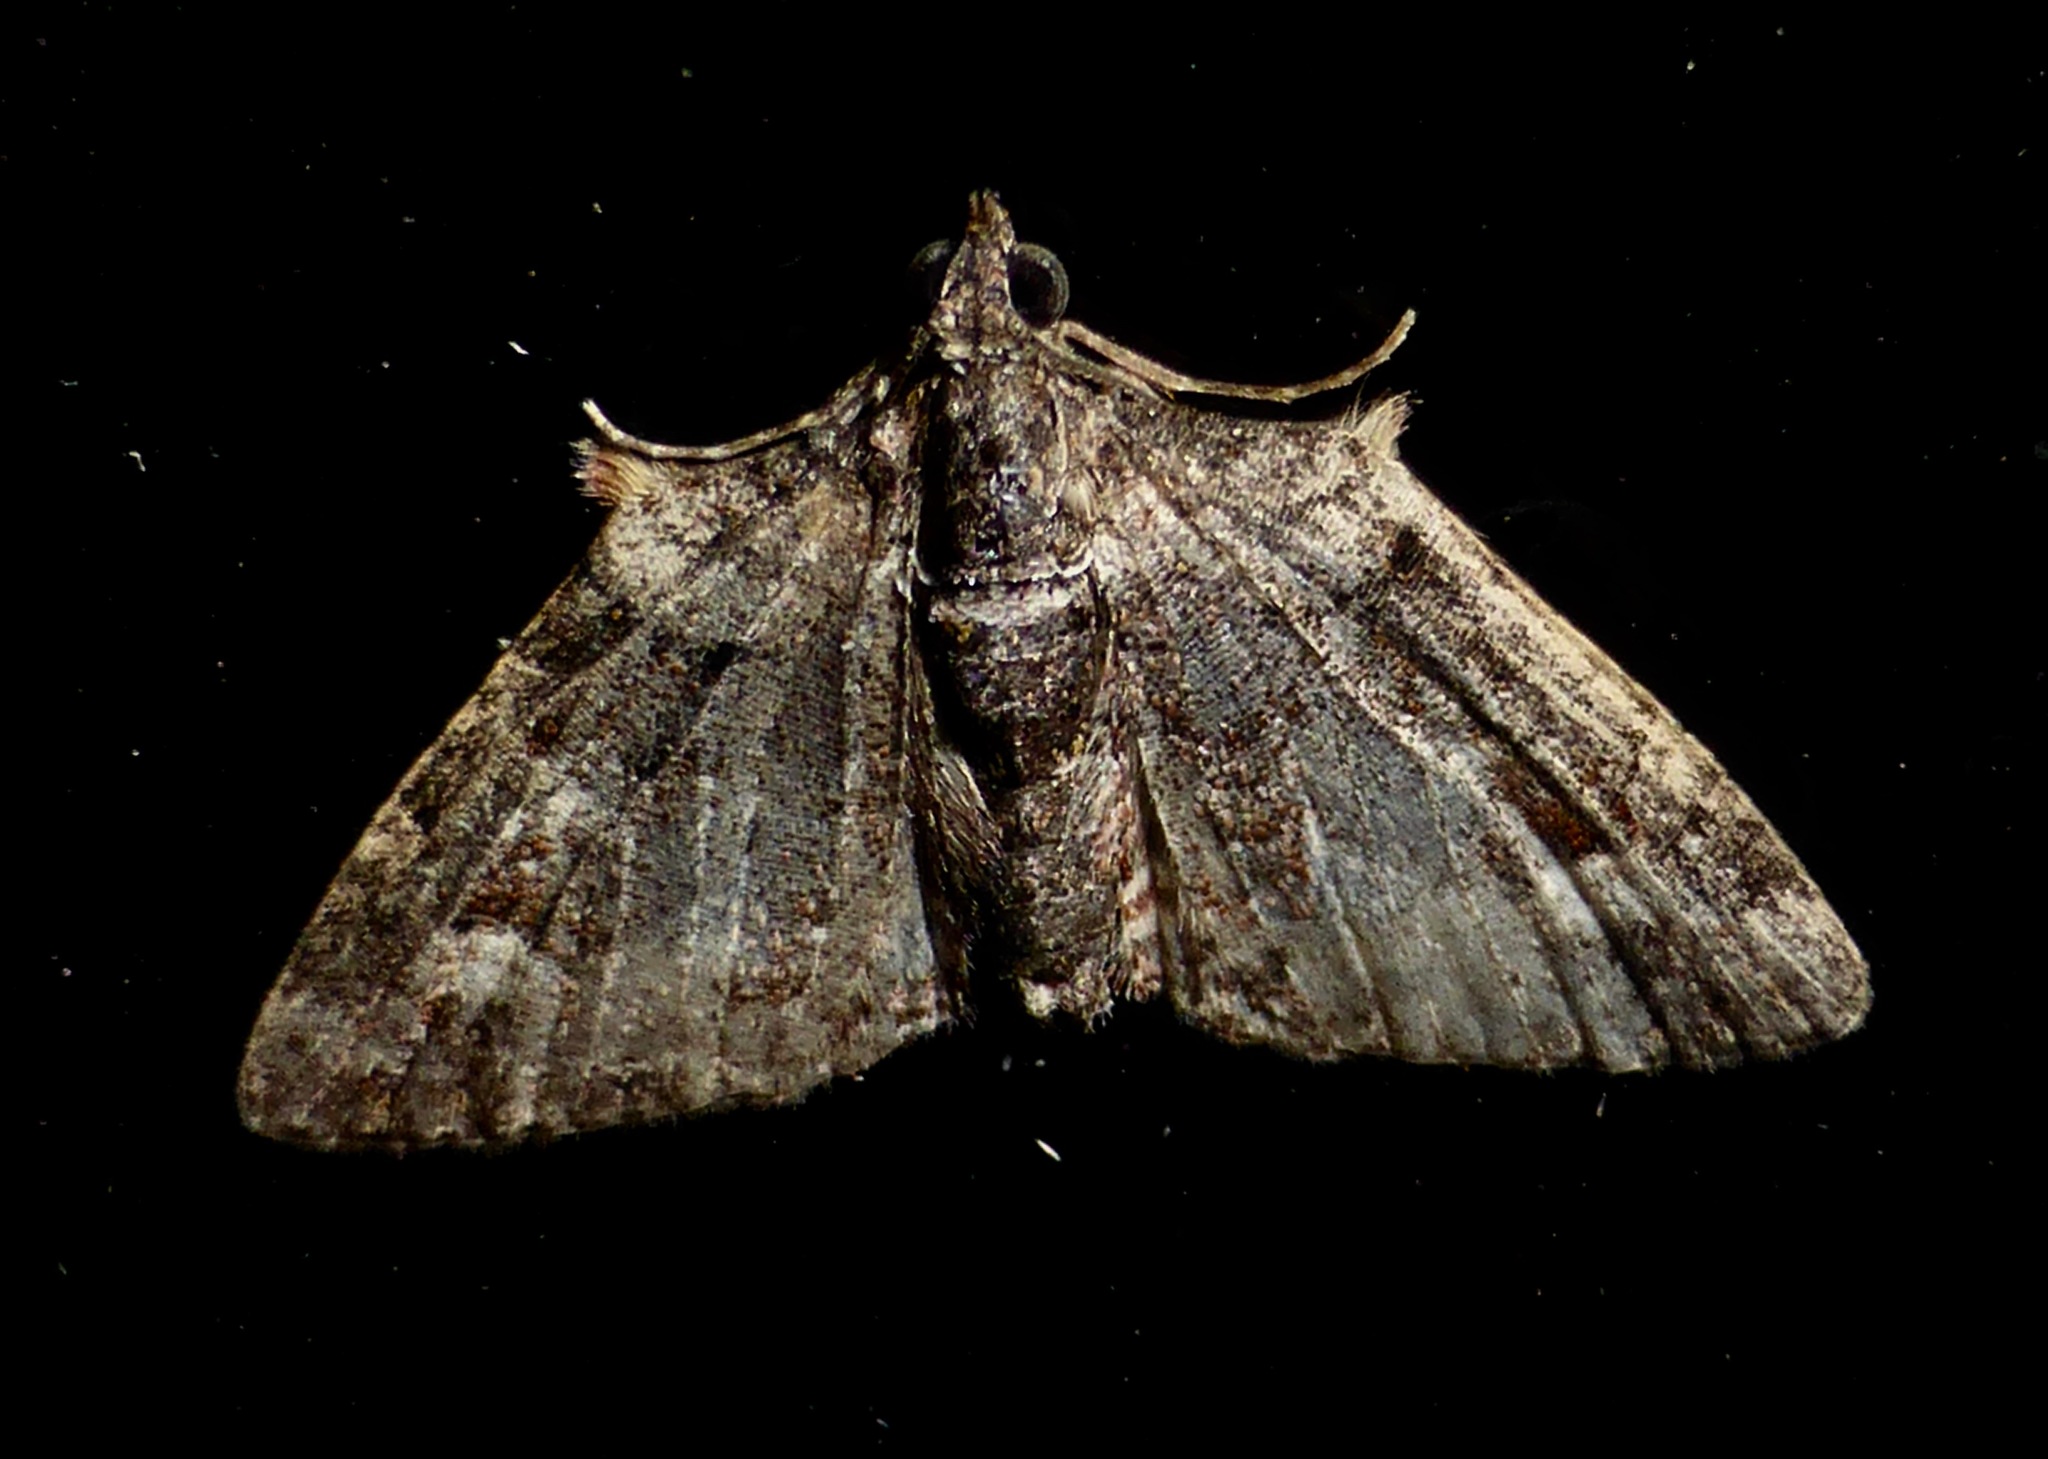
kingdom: Animalia
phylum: Arthropoda
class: Insecta
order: Lepidoptera
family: Geometridae
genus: Phrissogonus
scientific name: Phrissogonus laticostata
